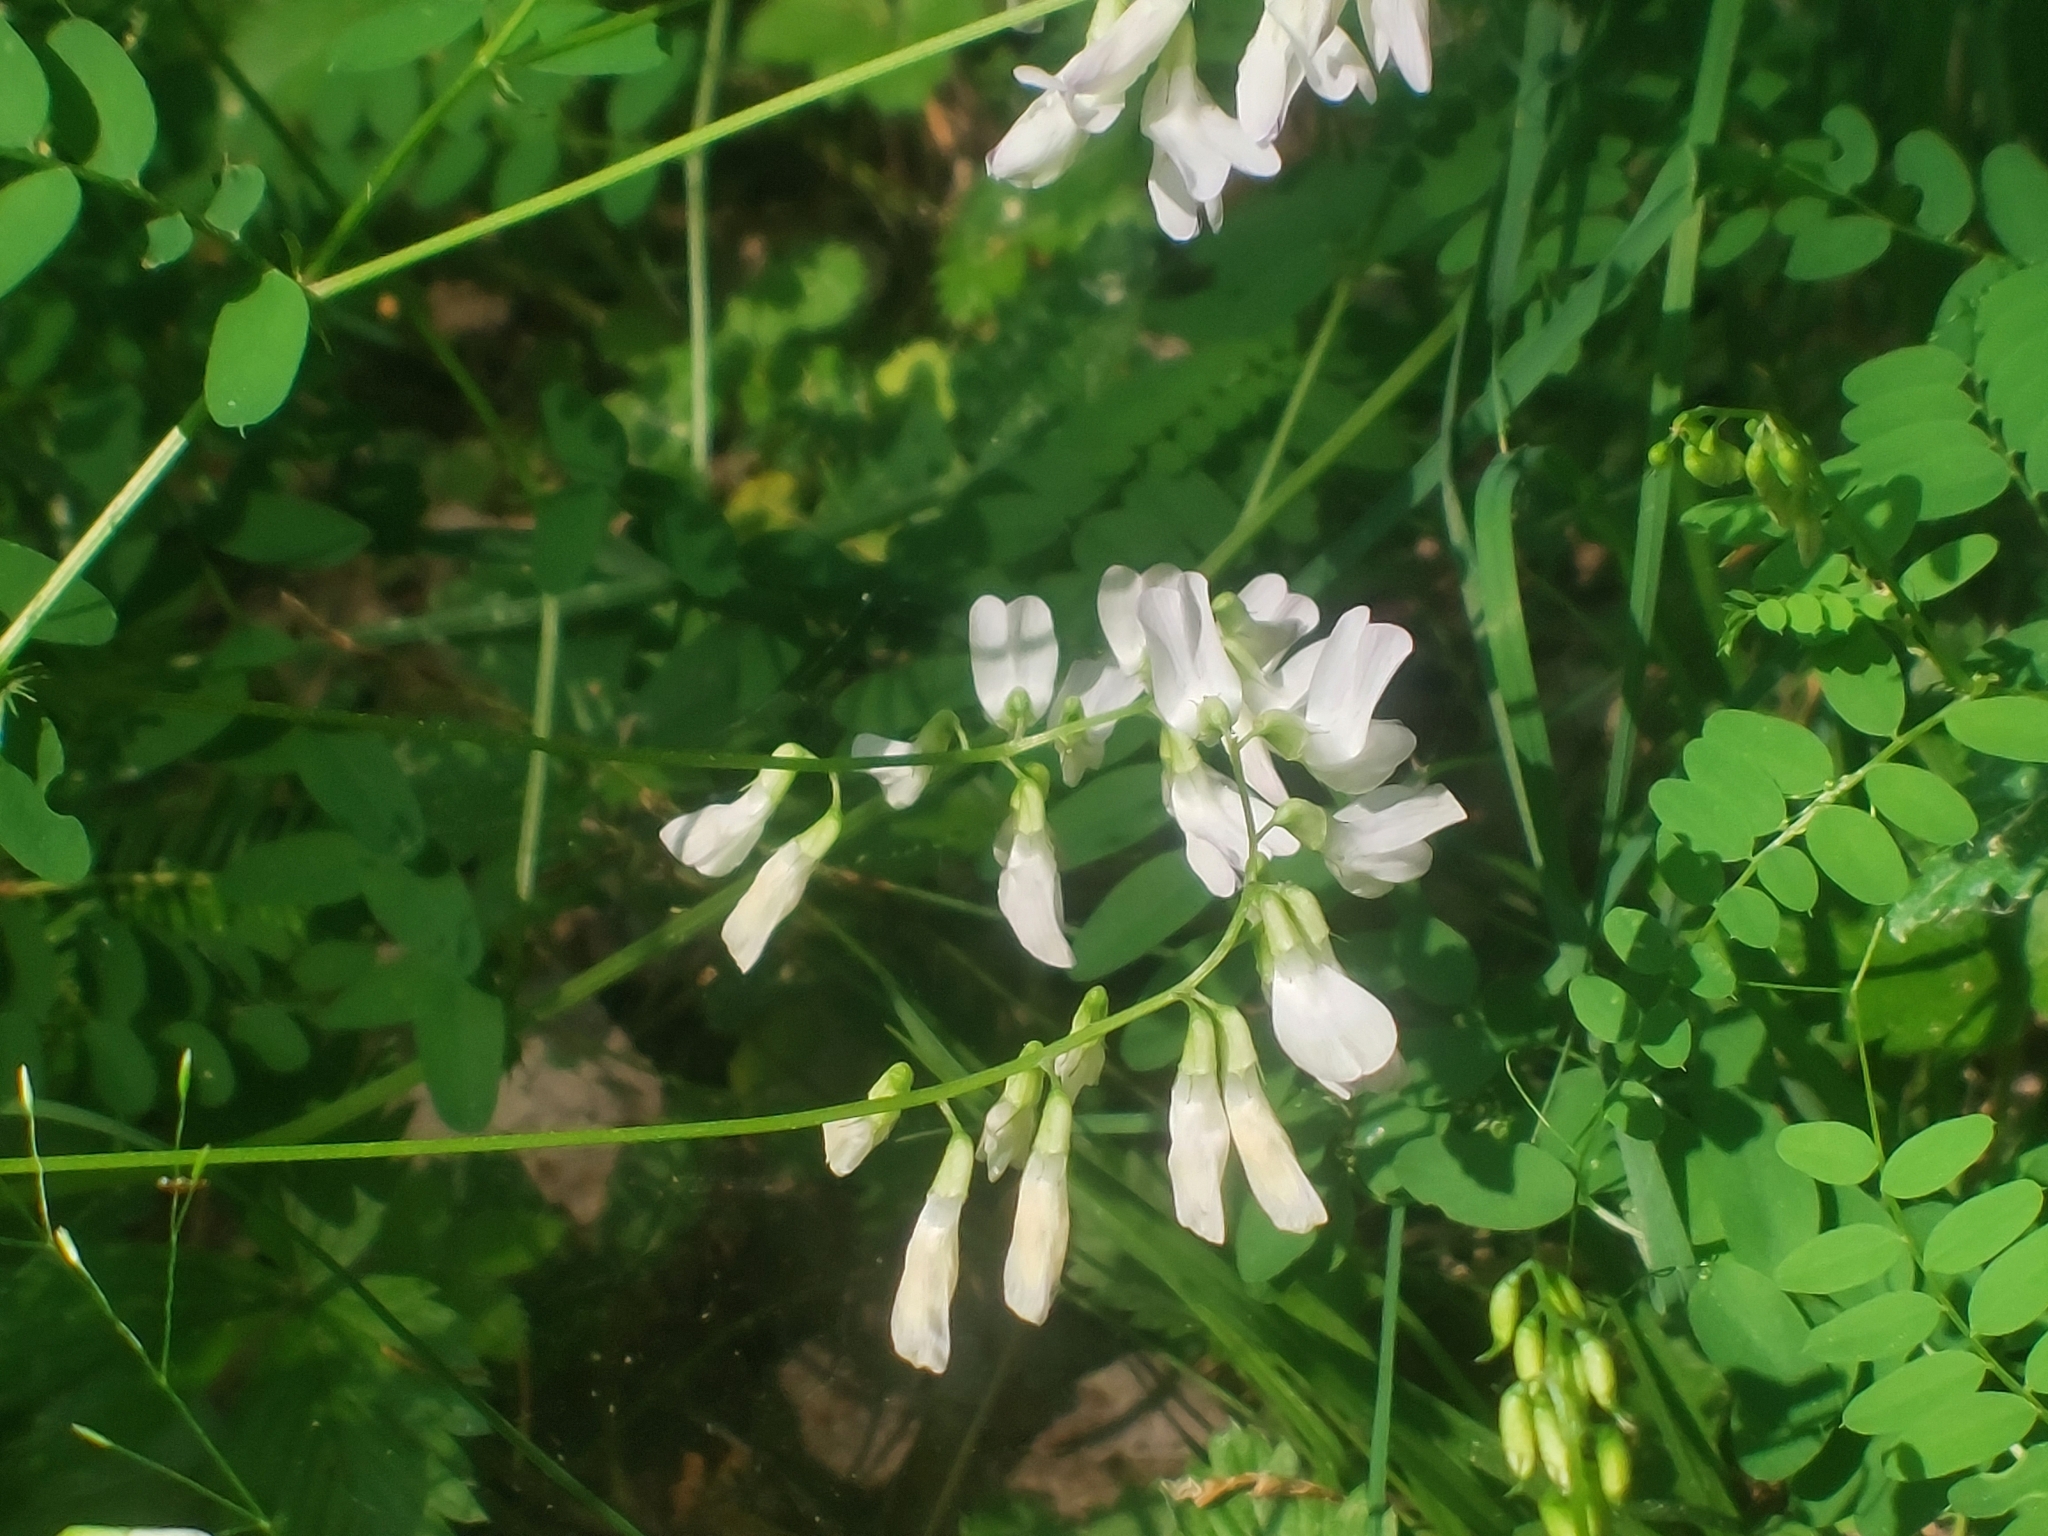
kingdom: Plantae
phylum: Tracheophyta
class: Magnoliopsida
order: Fabales
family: Fabaceae
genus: Vicia
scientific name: Vicia sylvatica
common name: Wood vetch
